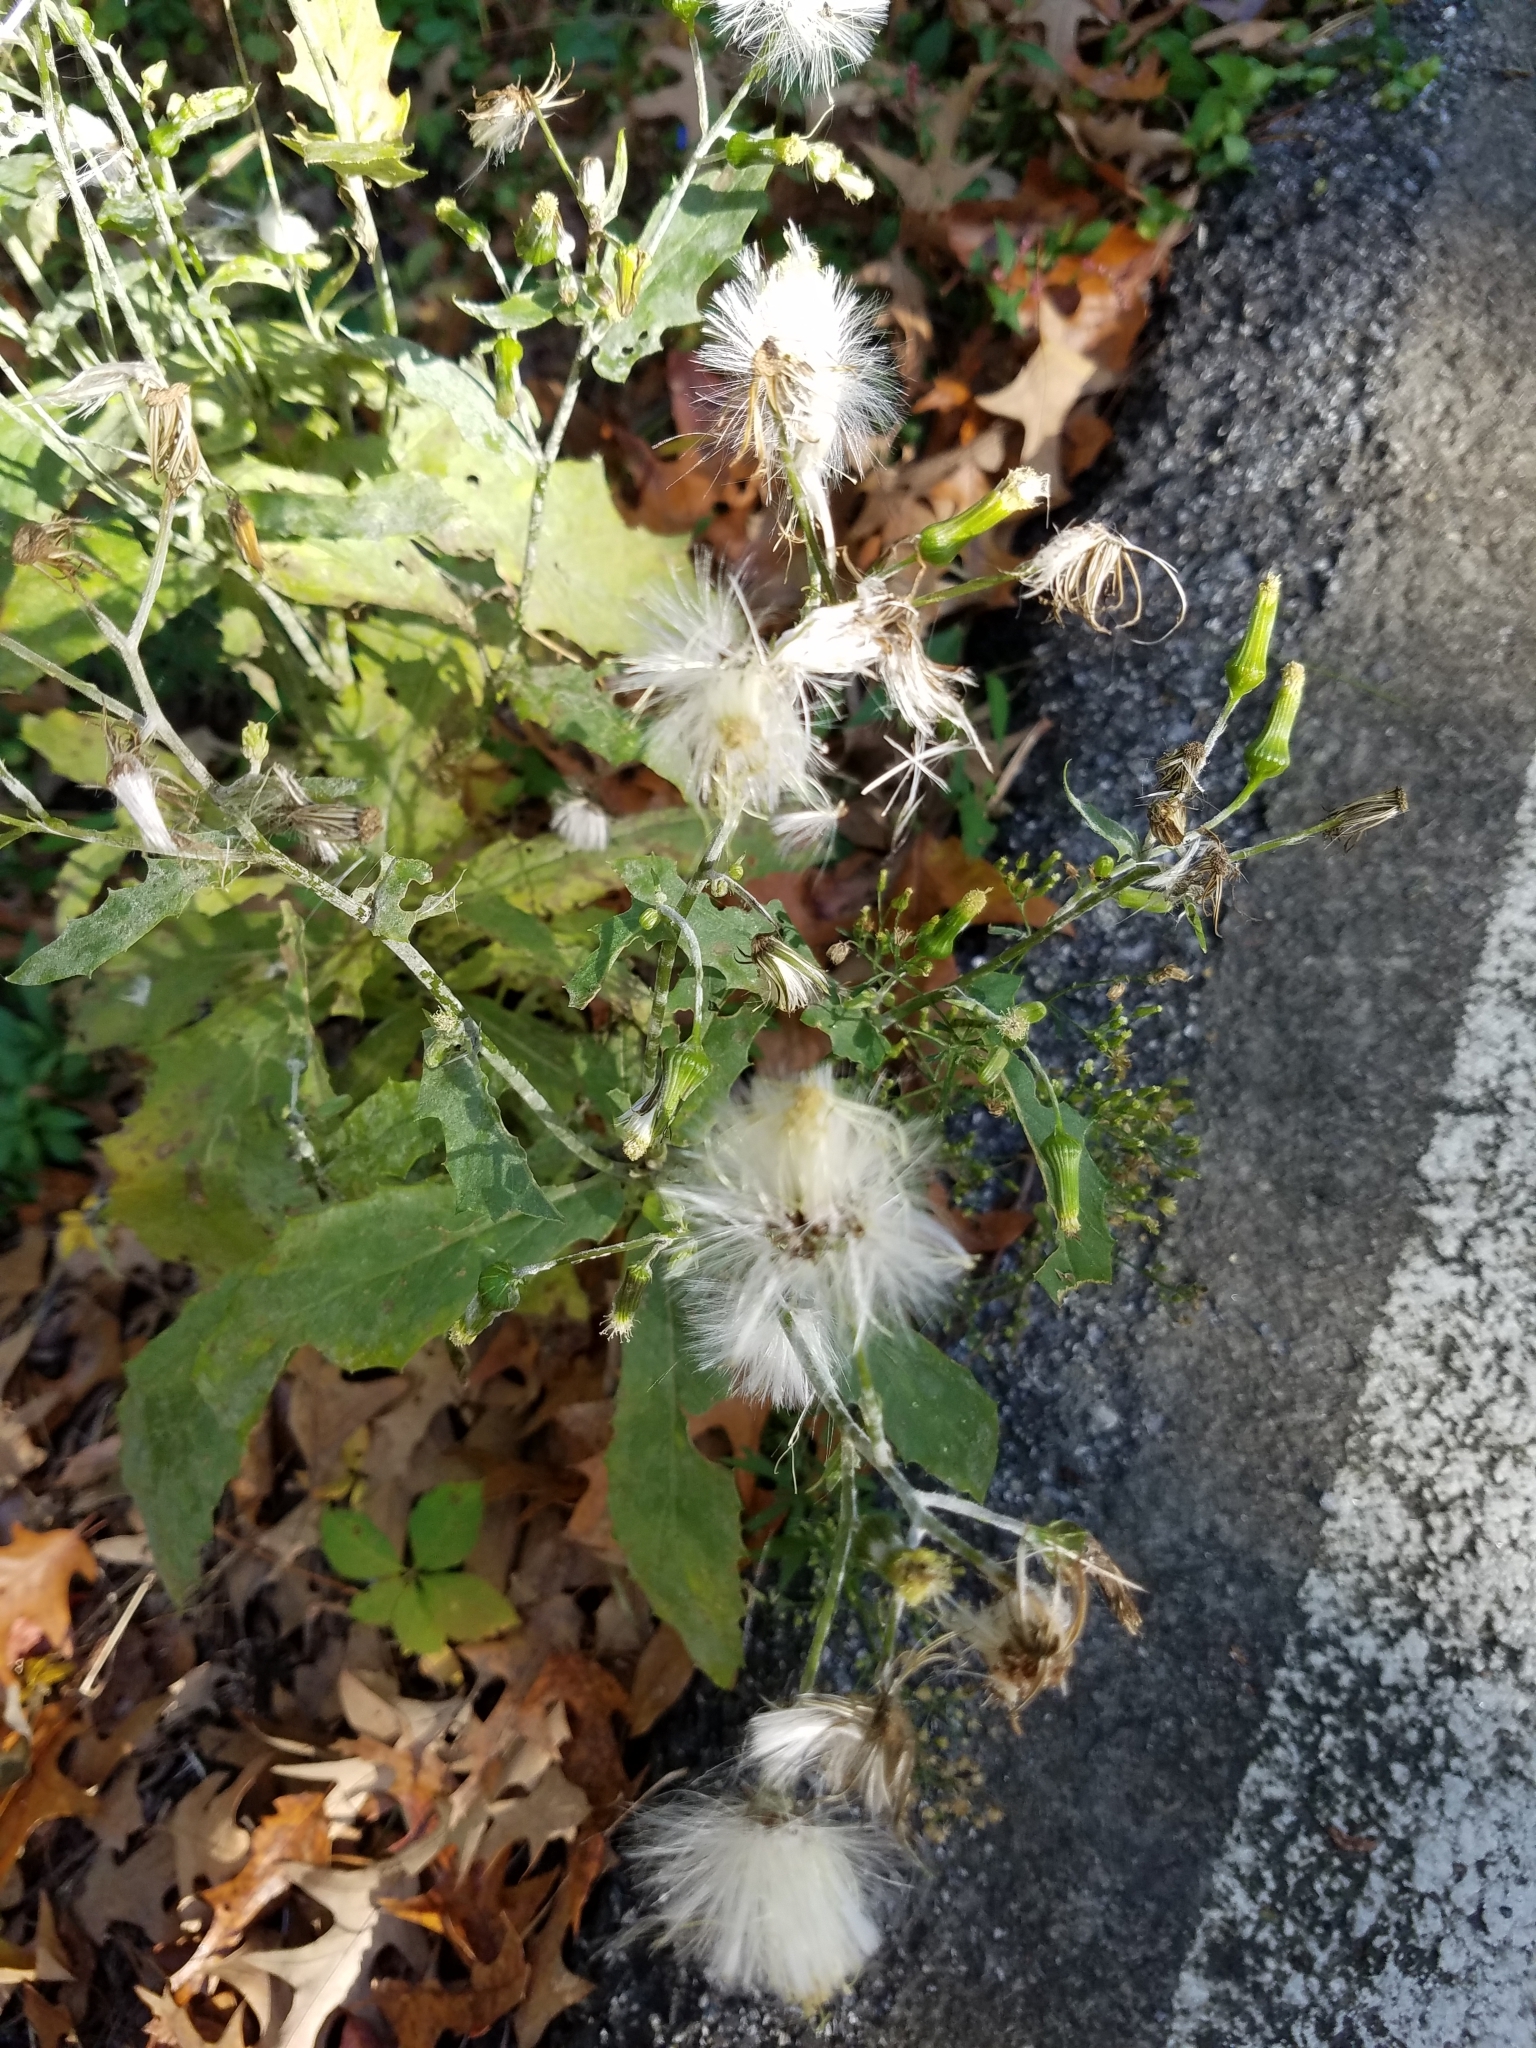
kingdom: Plantae
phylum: Tracheophyta
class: Magnoliopsida
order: Asterales
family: Asteraceae
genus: Erechtites
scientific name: Erechtites hieraciifolius
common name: American burnweed
